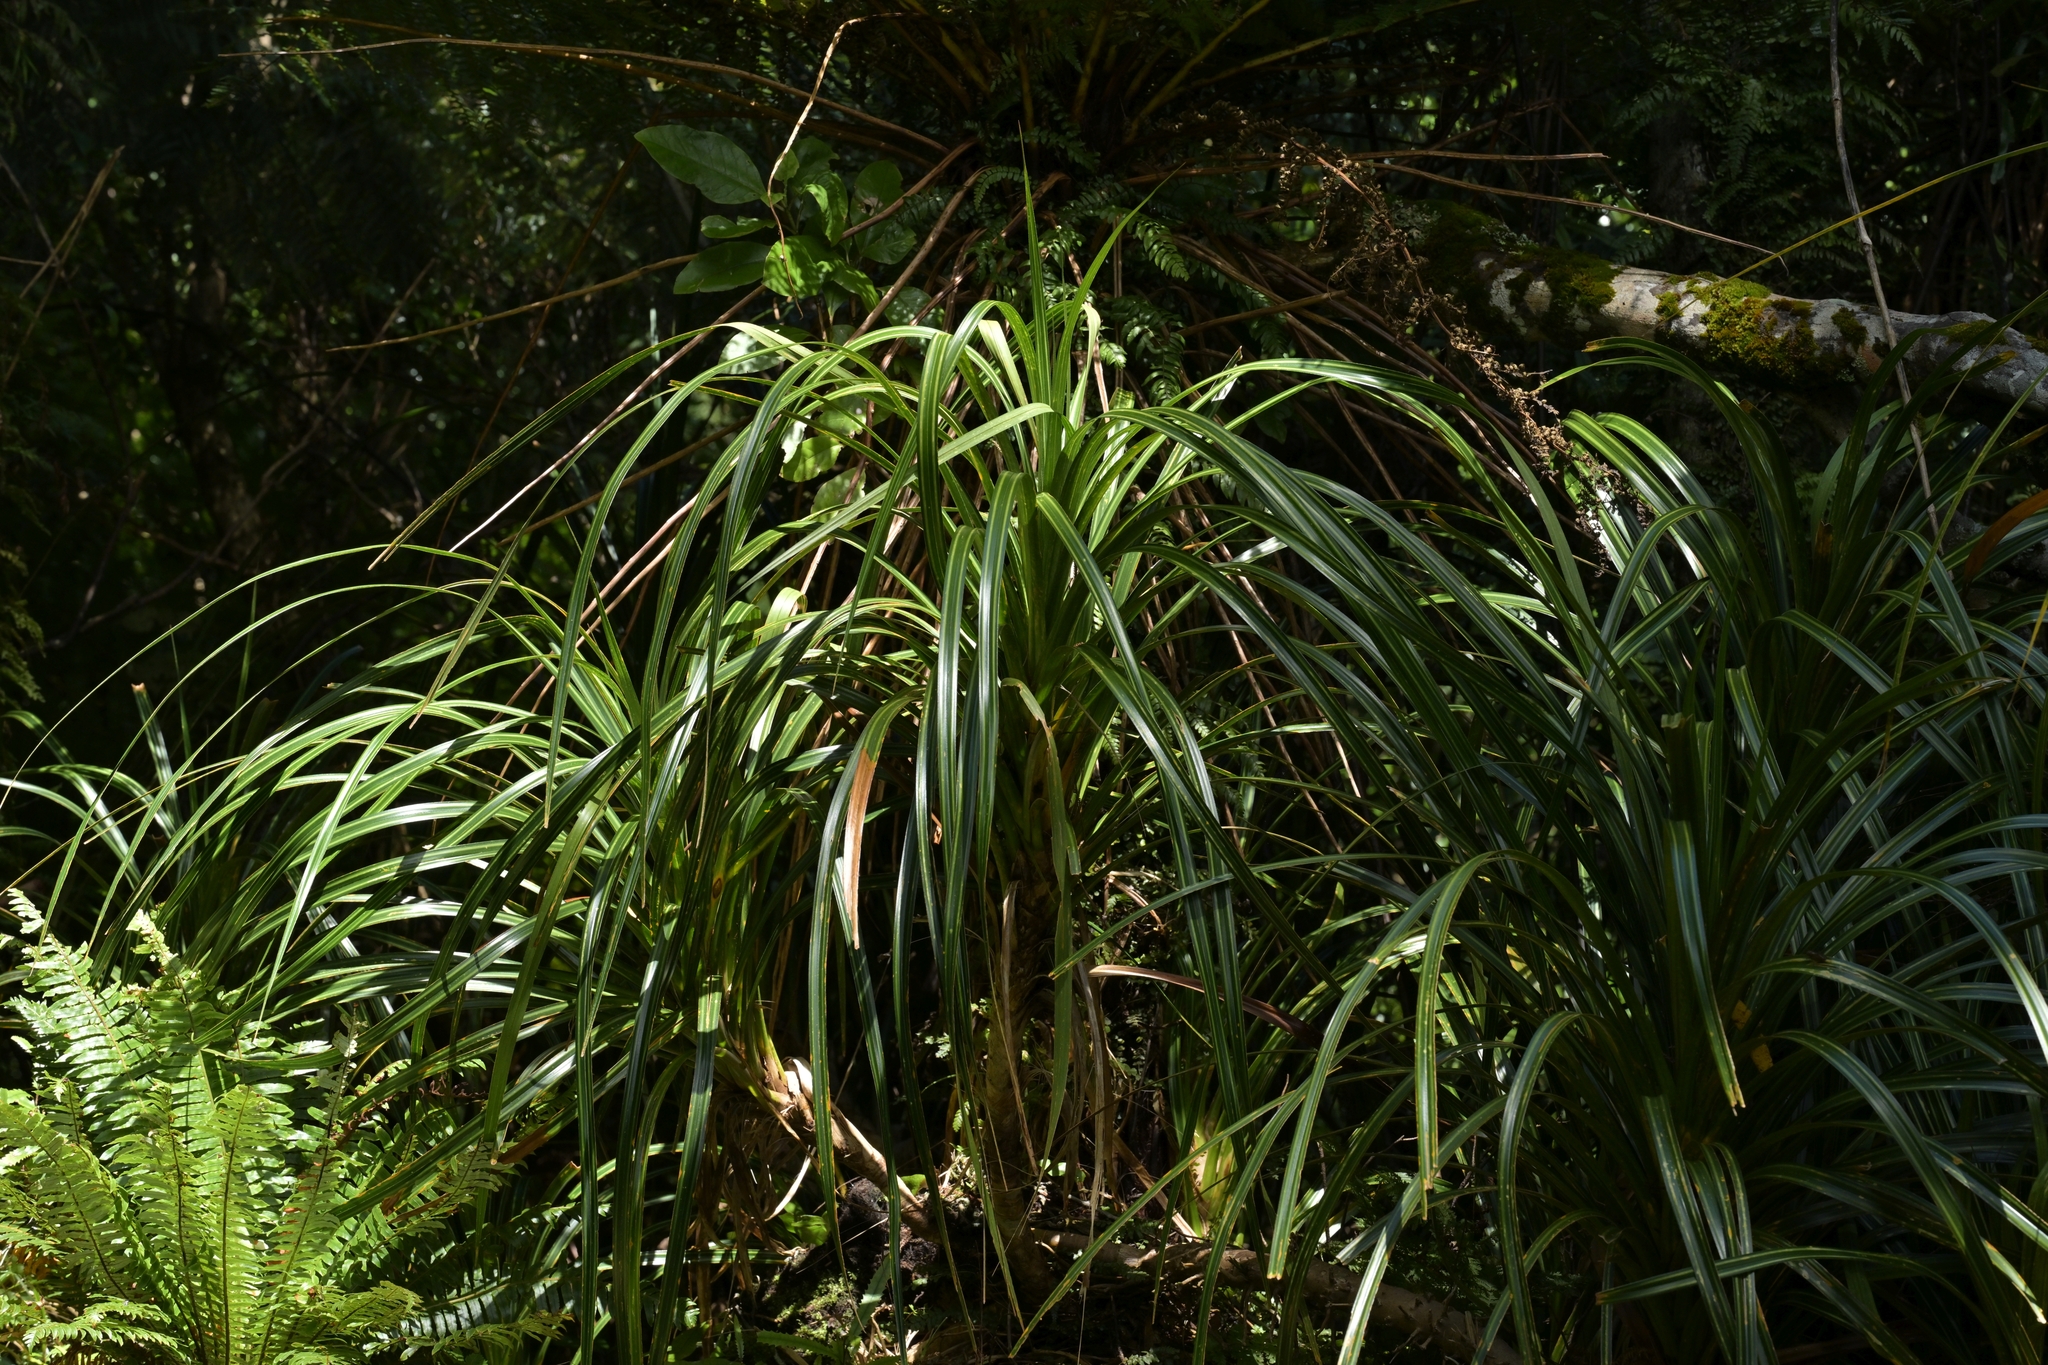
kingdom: Plantae
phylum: Tracheophyta
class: Liliopsida
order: Pandanales
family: Pandanaceae
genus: Freycinetia
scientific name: Freycinetia banksii
